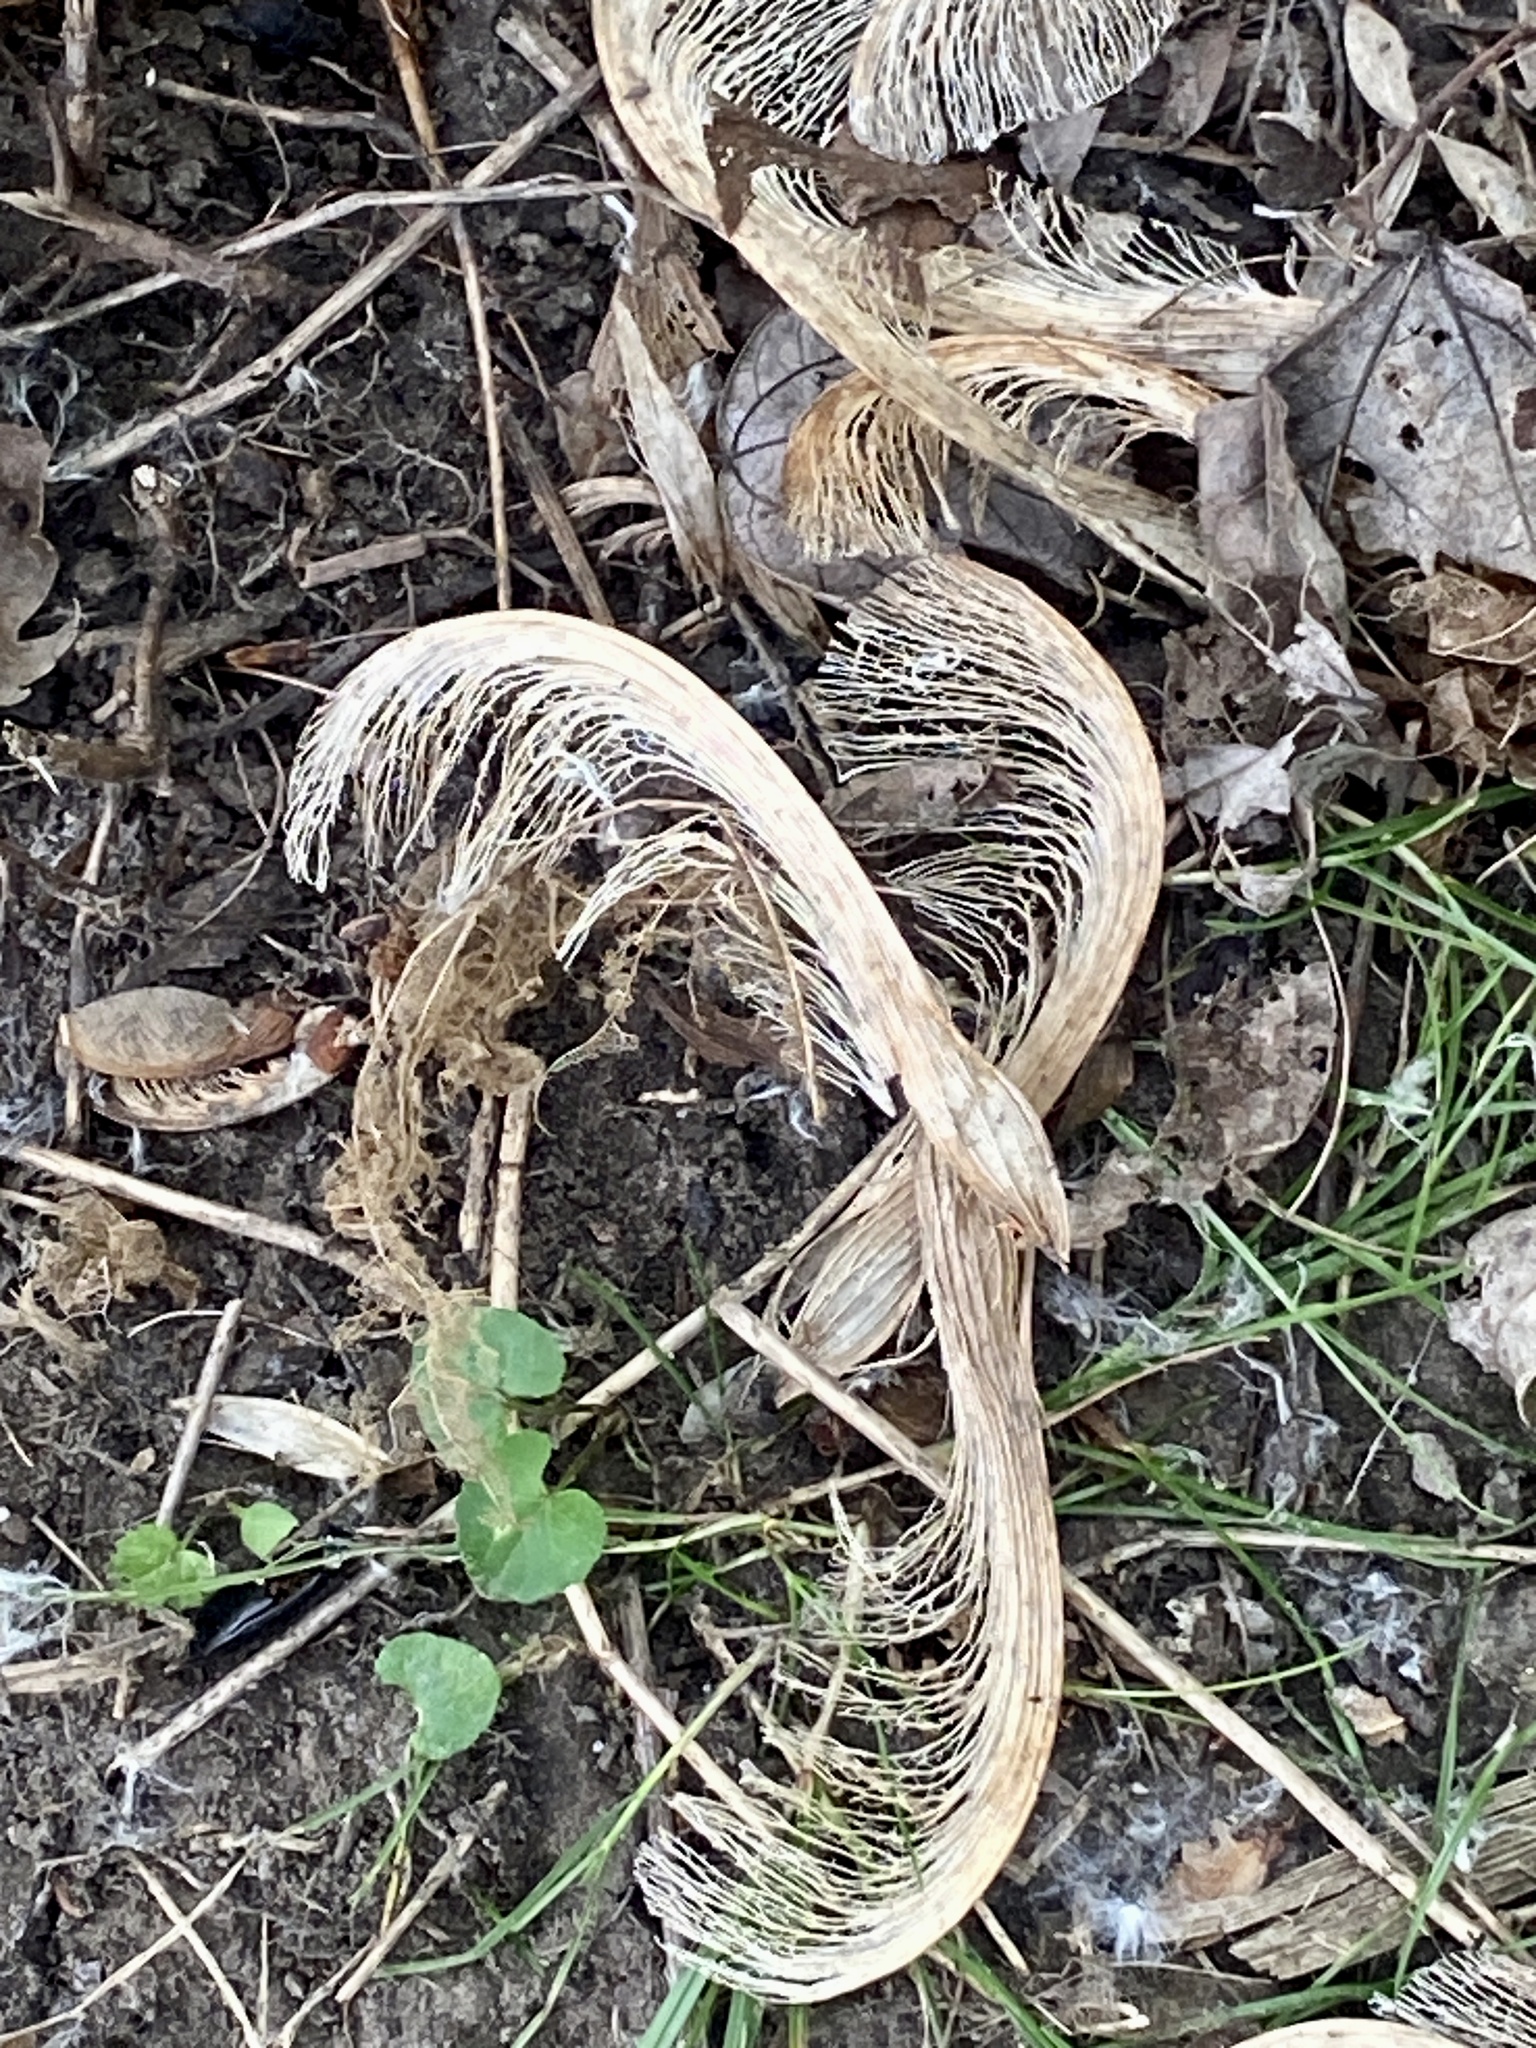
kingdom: Plantae
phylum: Tracheophyta
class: Magnoliopsida
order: Sapindales
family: Sapindaceae
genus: Acer
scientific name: Acer saccharinum
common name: Silver maple
